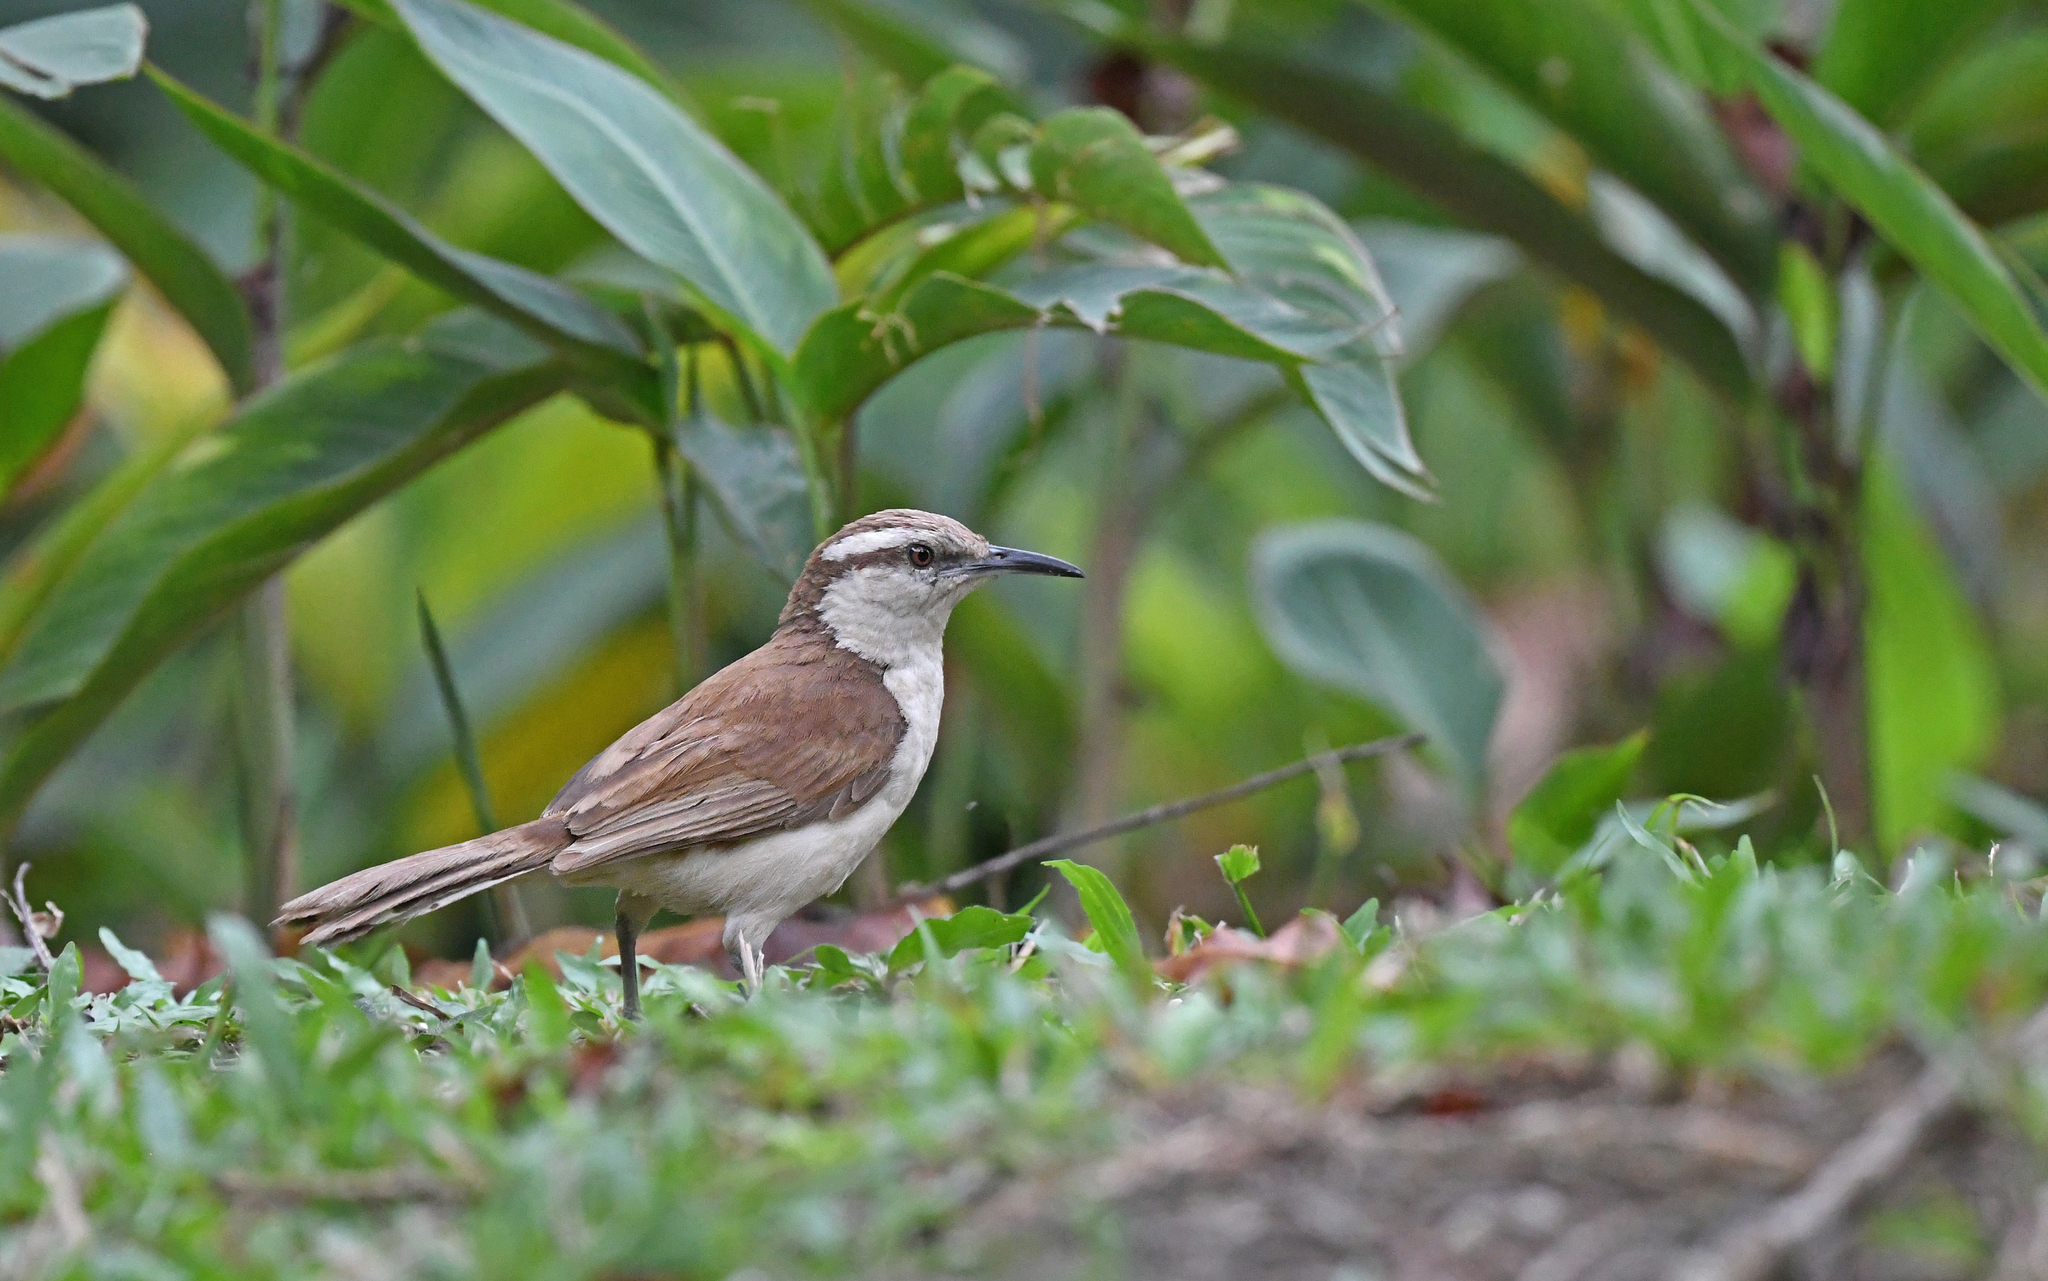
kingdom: Animalia
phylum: Chordata
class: Aves
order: Passeriformes
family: Troglodytidae
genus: Campylorhynchus
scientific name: Campylorhynchus griseus
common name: Bicolored wren
